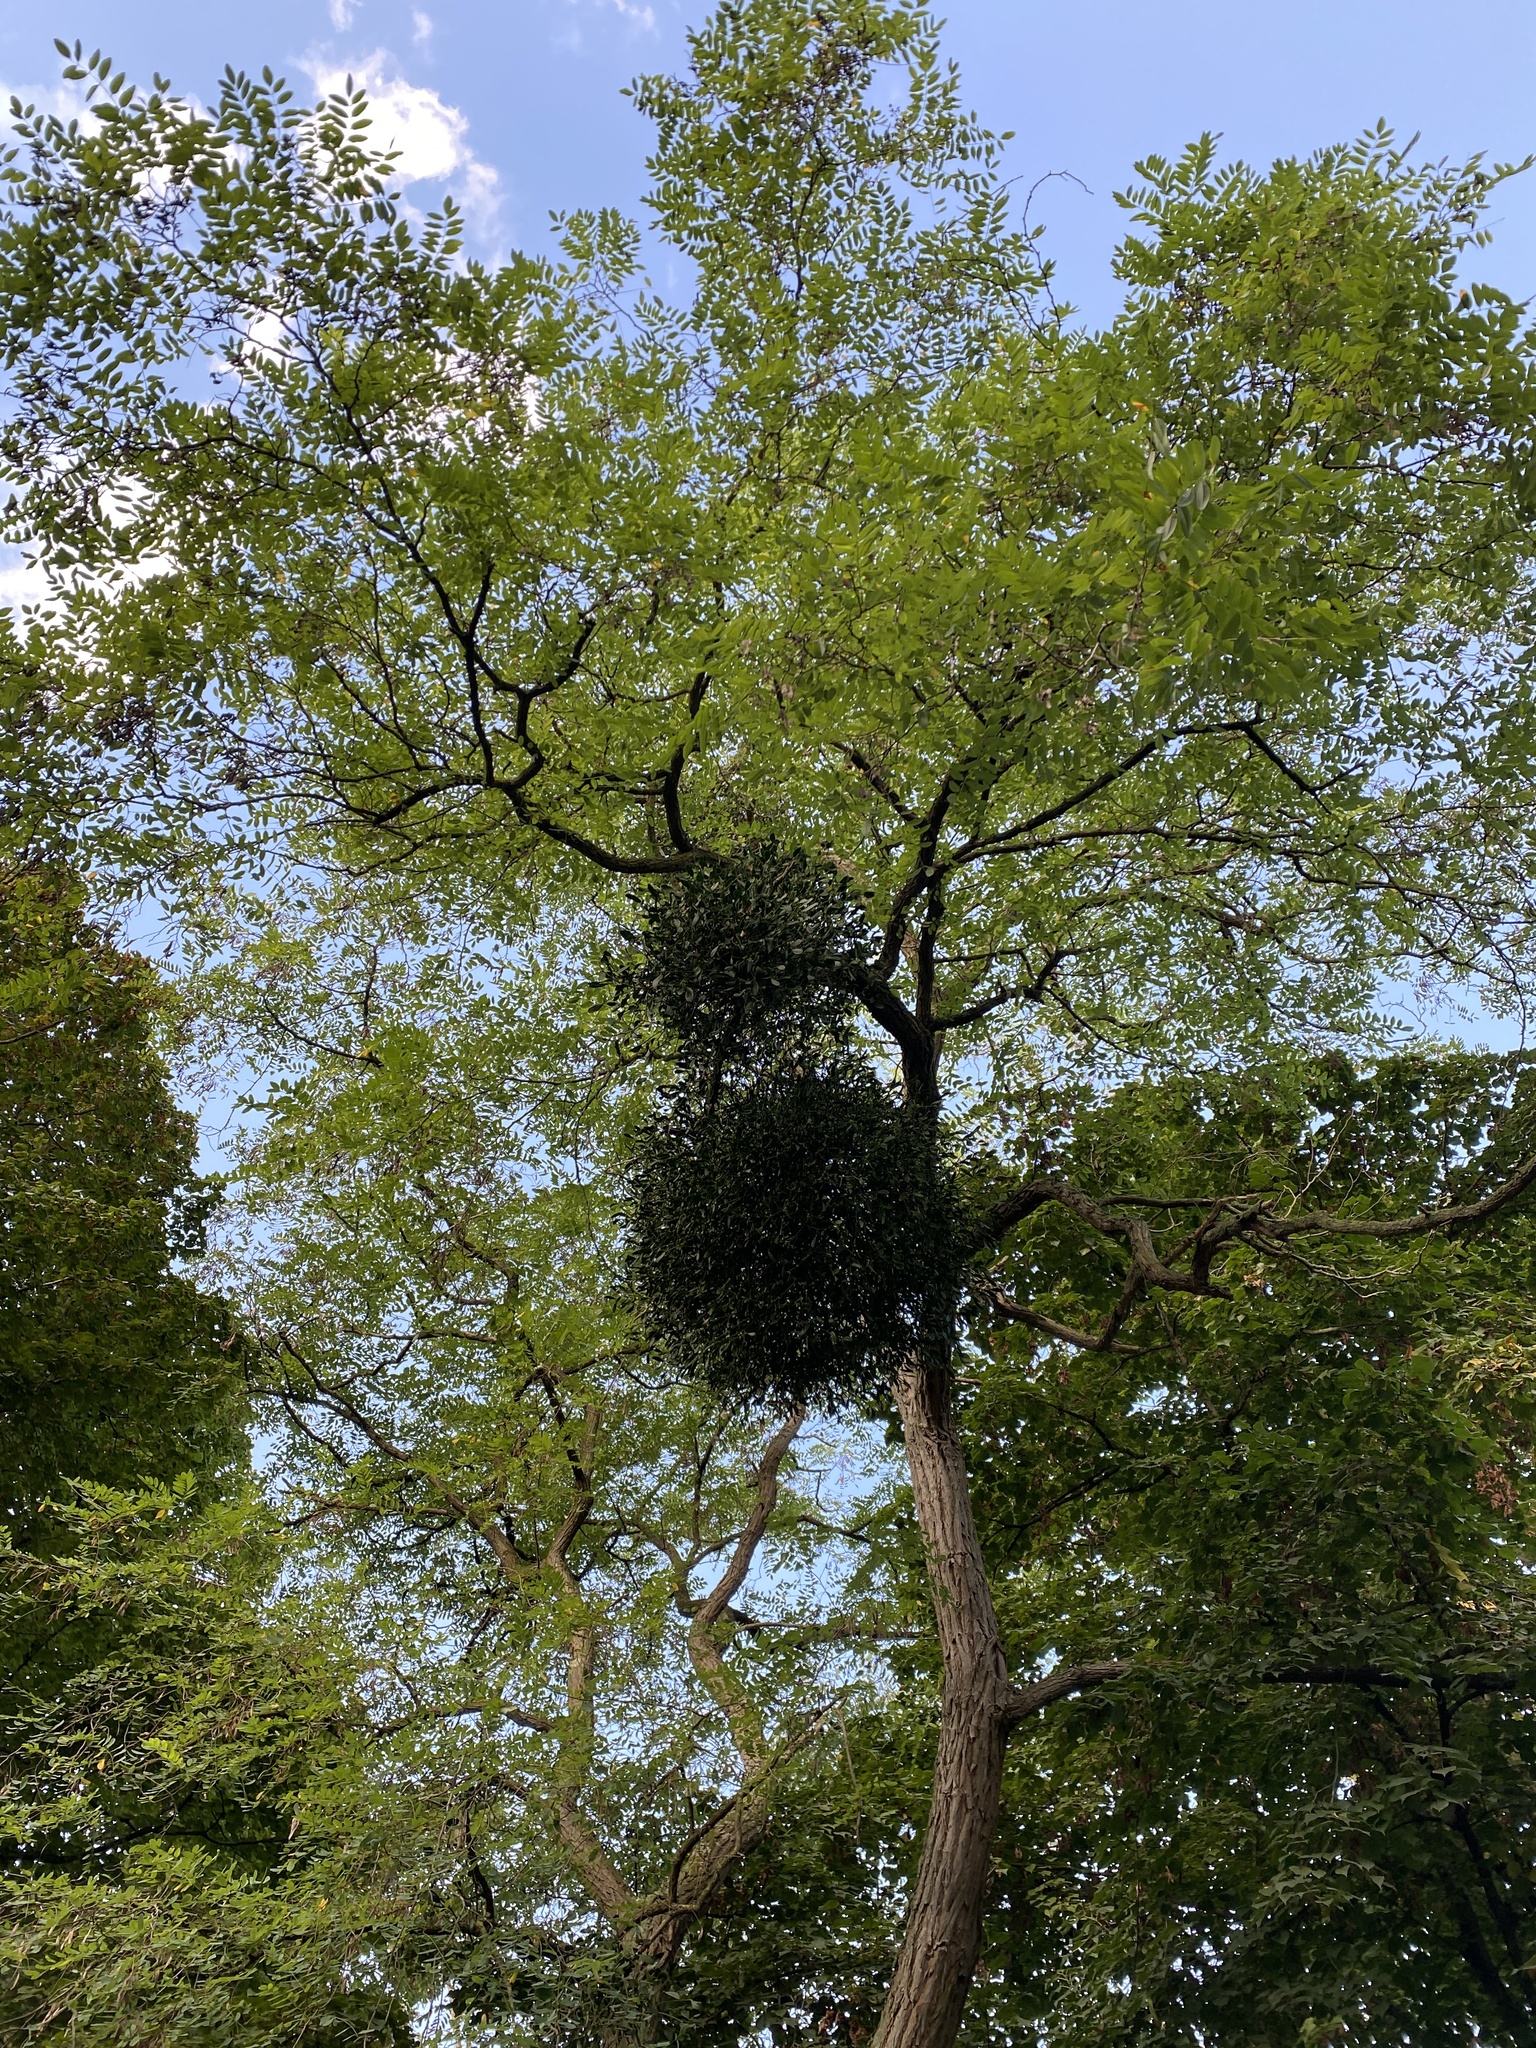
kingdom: Plantae
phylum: Tracheophyta
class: Magnoliopsida
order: Santalales
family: Viscaceae
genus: Viscum
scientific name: Viscum album
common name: Mistletoe
